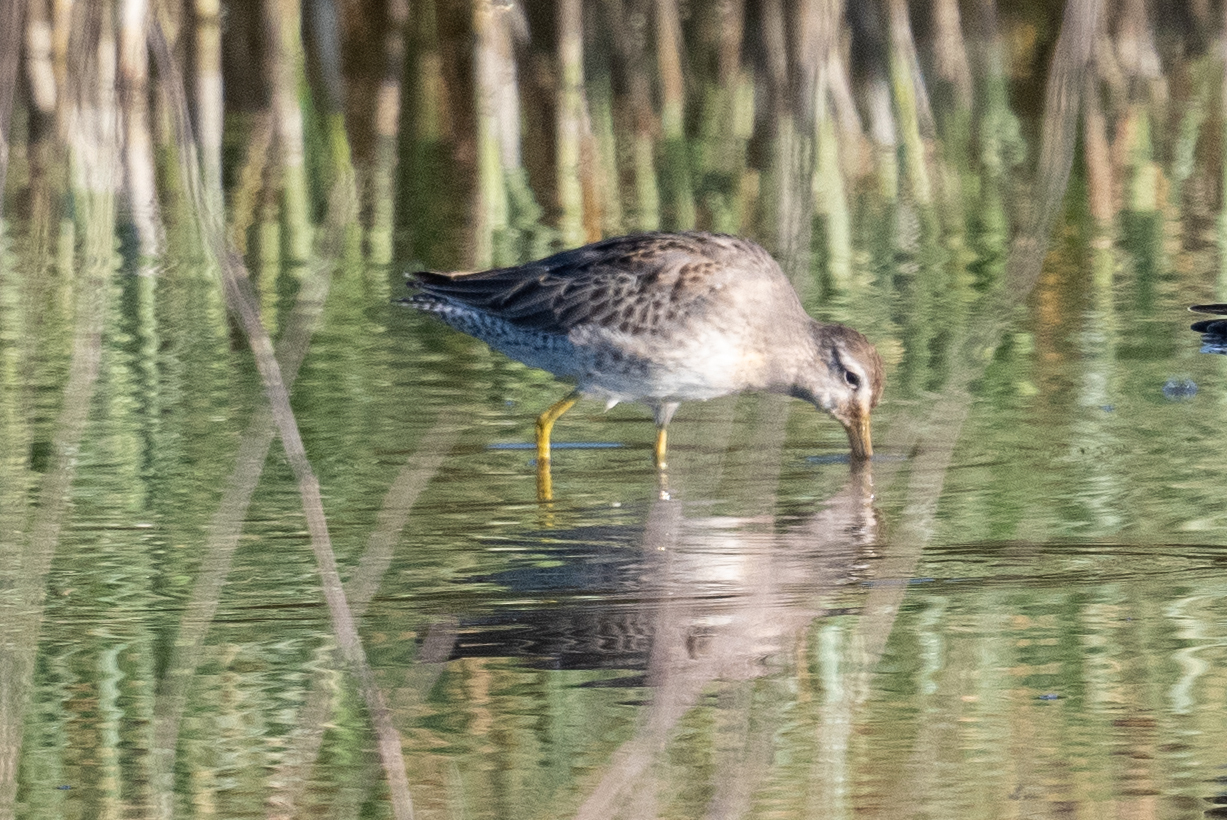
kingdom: Animalia
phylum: Chordata
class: Aves
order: Charadriiformes
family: Scolopacidae
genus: Limnodromus
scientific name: Limnodromus scolopaceus
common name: Long-billed dowitcher
